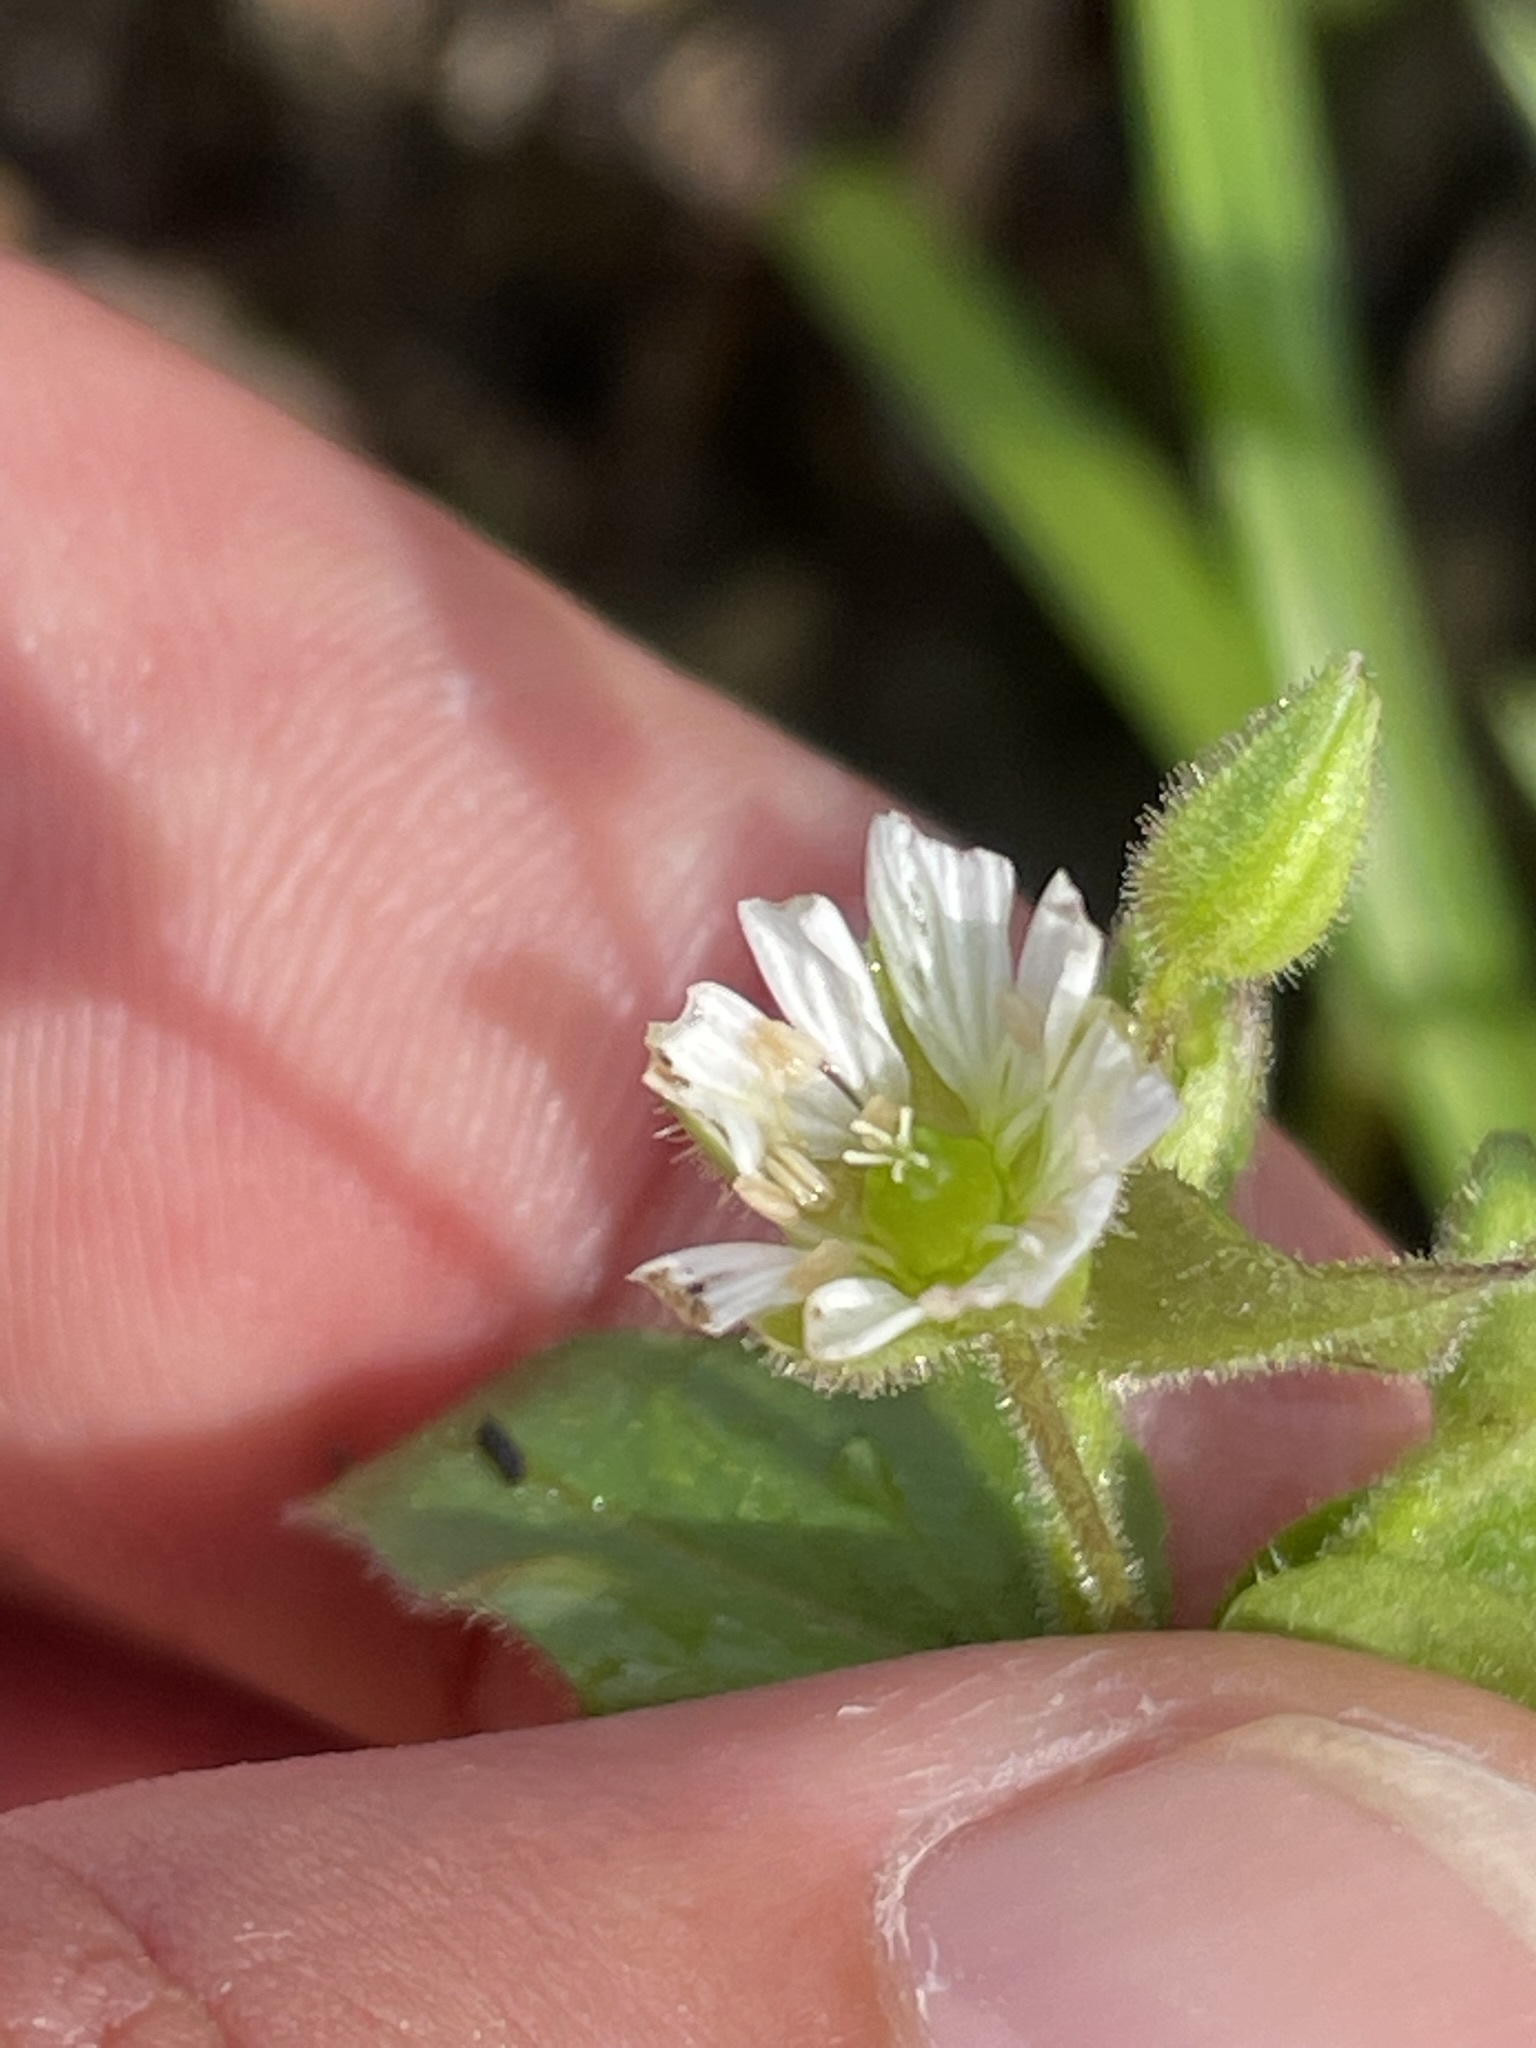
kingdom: Plantae
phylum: Tracheophyta
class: Magnoliopsida
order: Caryophyllales
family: Caryophyllaceae
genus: Stellaria
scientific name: Stellaria aquatica
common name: Water chickweed
